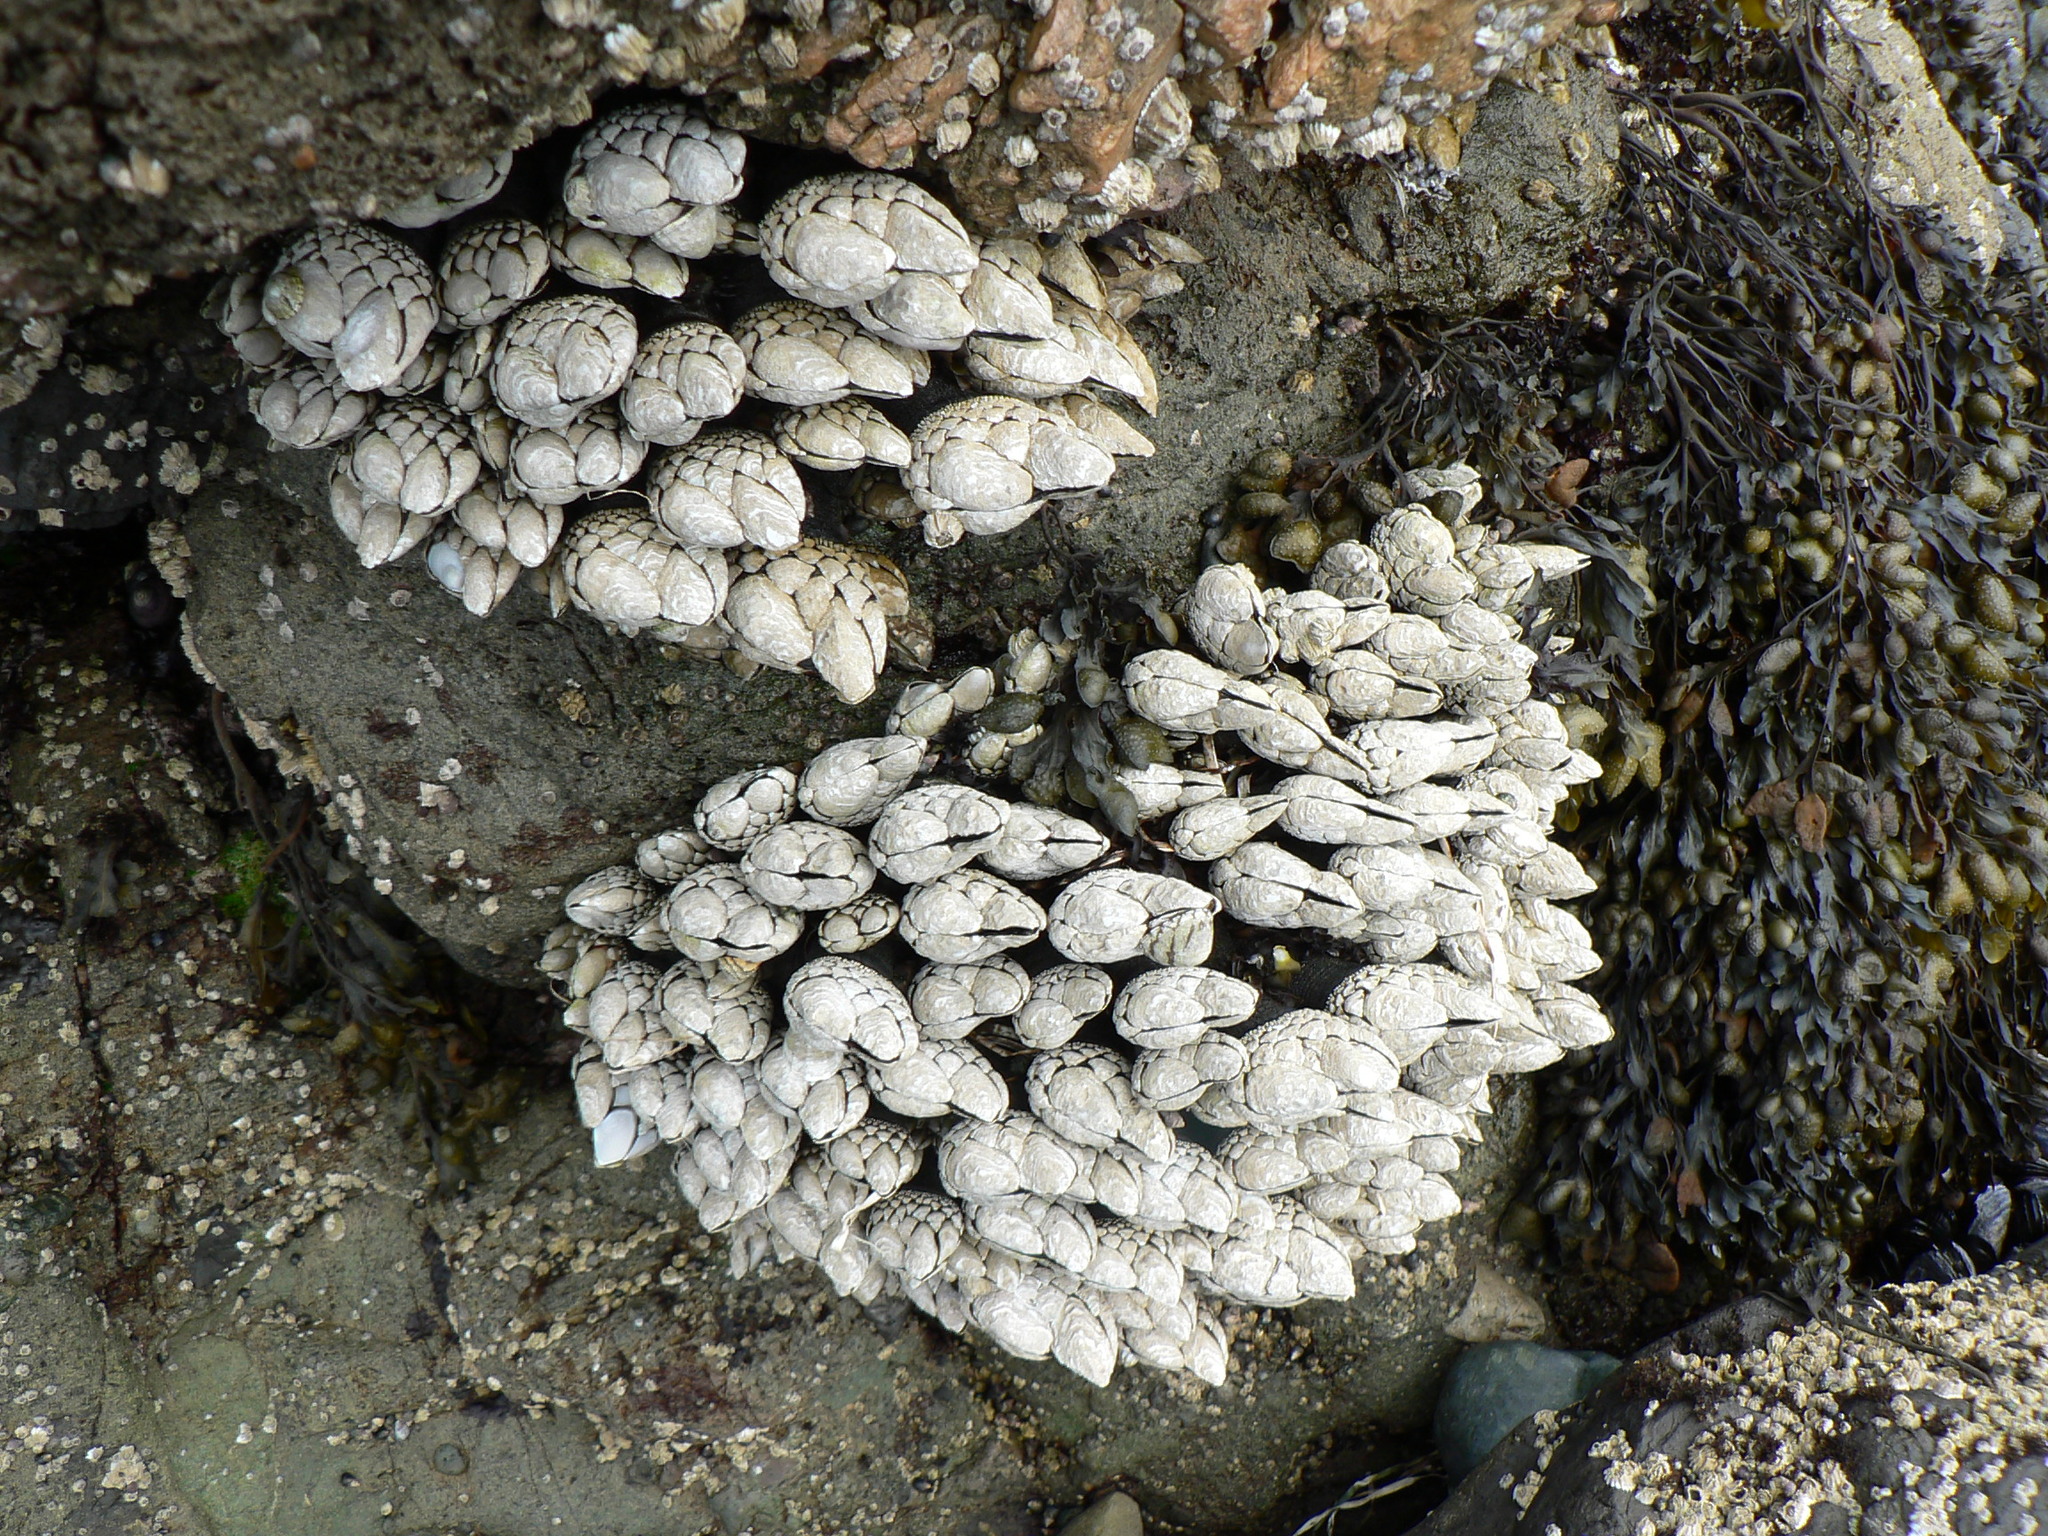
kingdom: Animalia
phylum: Arthropoda
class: Maxillopoda
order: Pedunculata
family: Pollicipedidae
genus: Pollicipes
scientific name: Pollicipes polymerus
